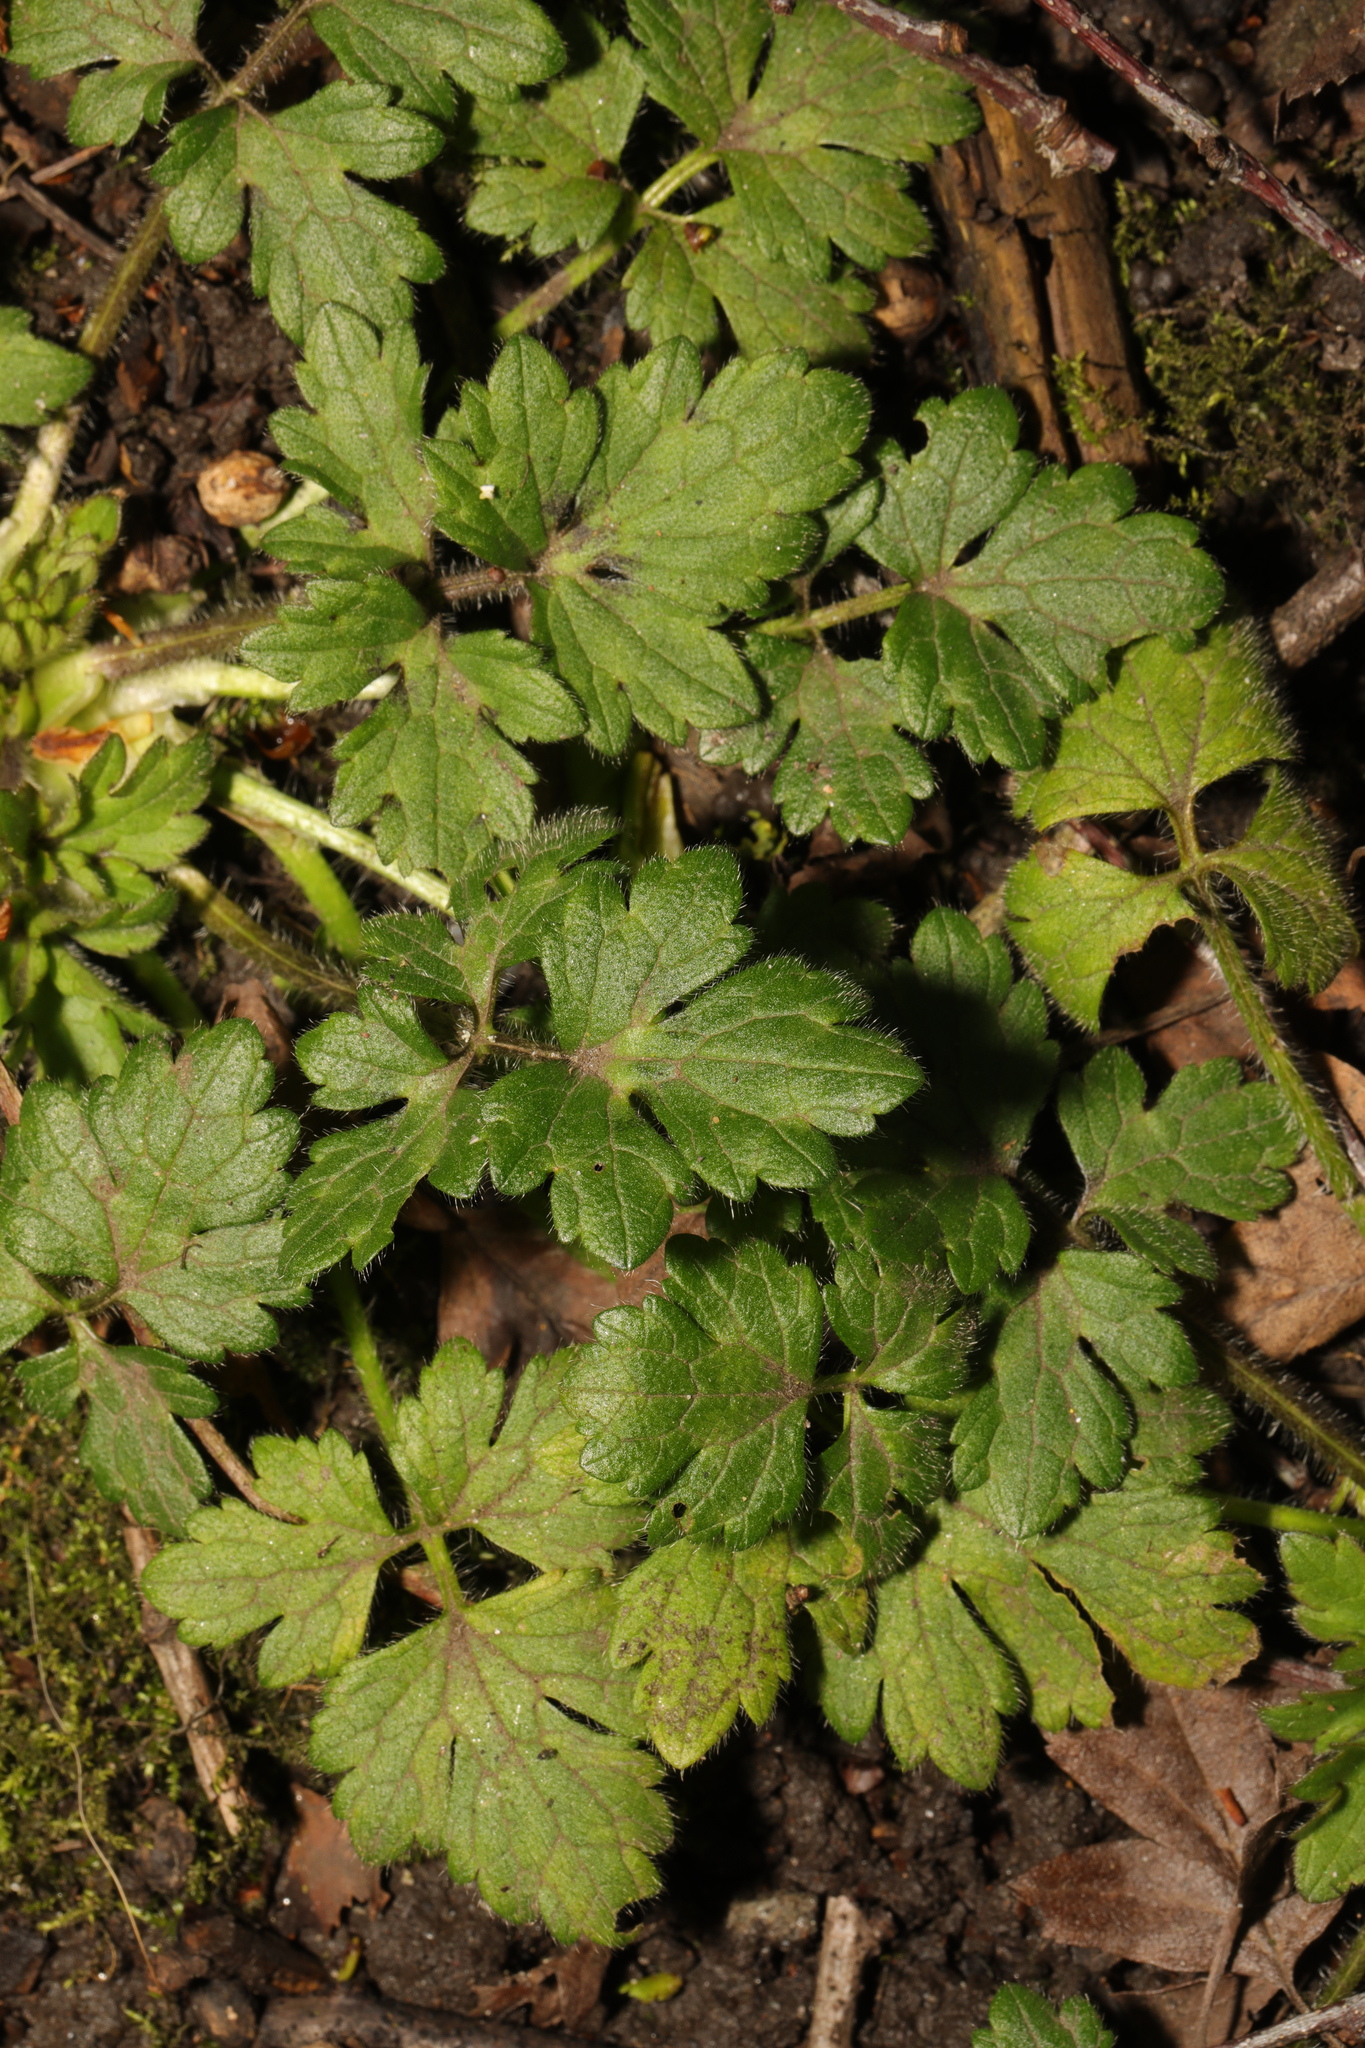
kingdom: Plantae
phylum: Tracheophyta
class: Magnoliopsida
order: Ranunculales
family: Ranunculaceae
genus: Ranunculus
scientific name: Ranunculus repens
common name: Creeping buttercup
